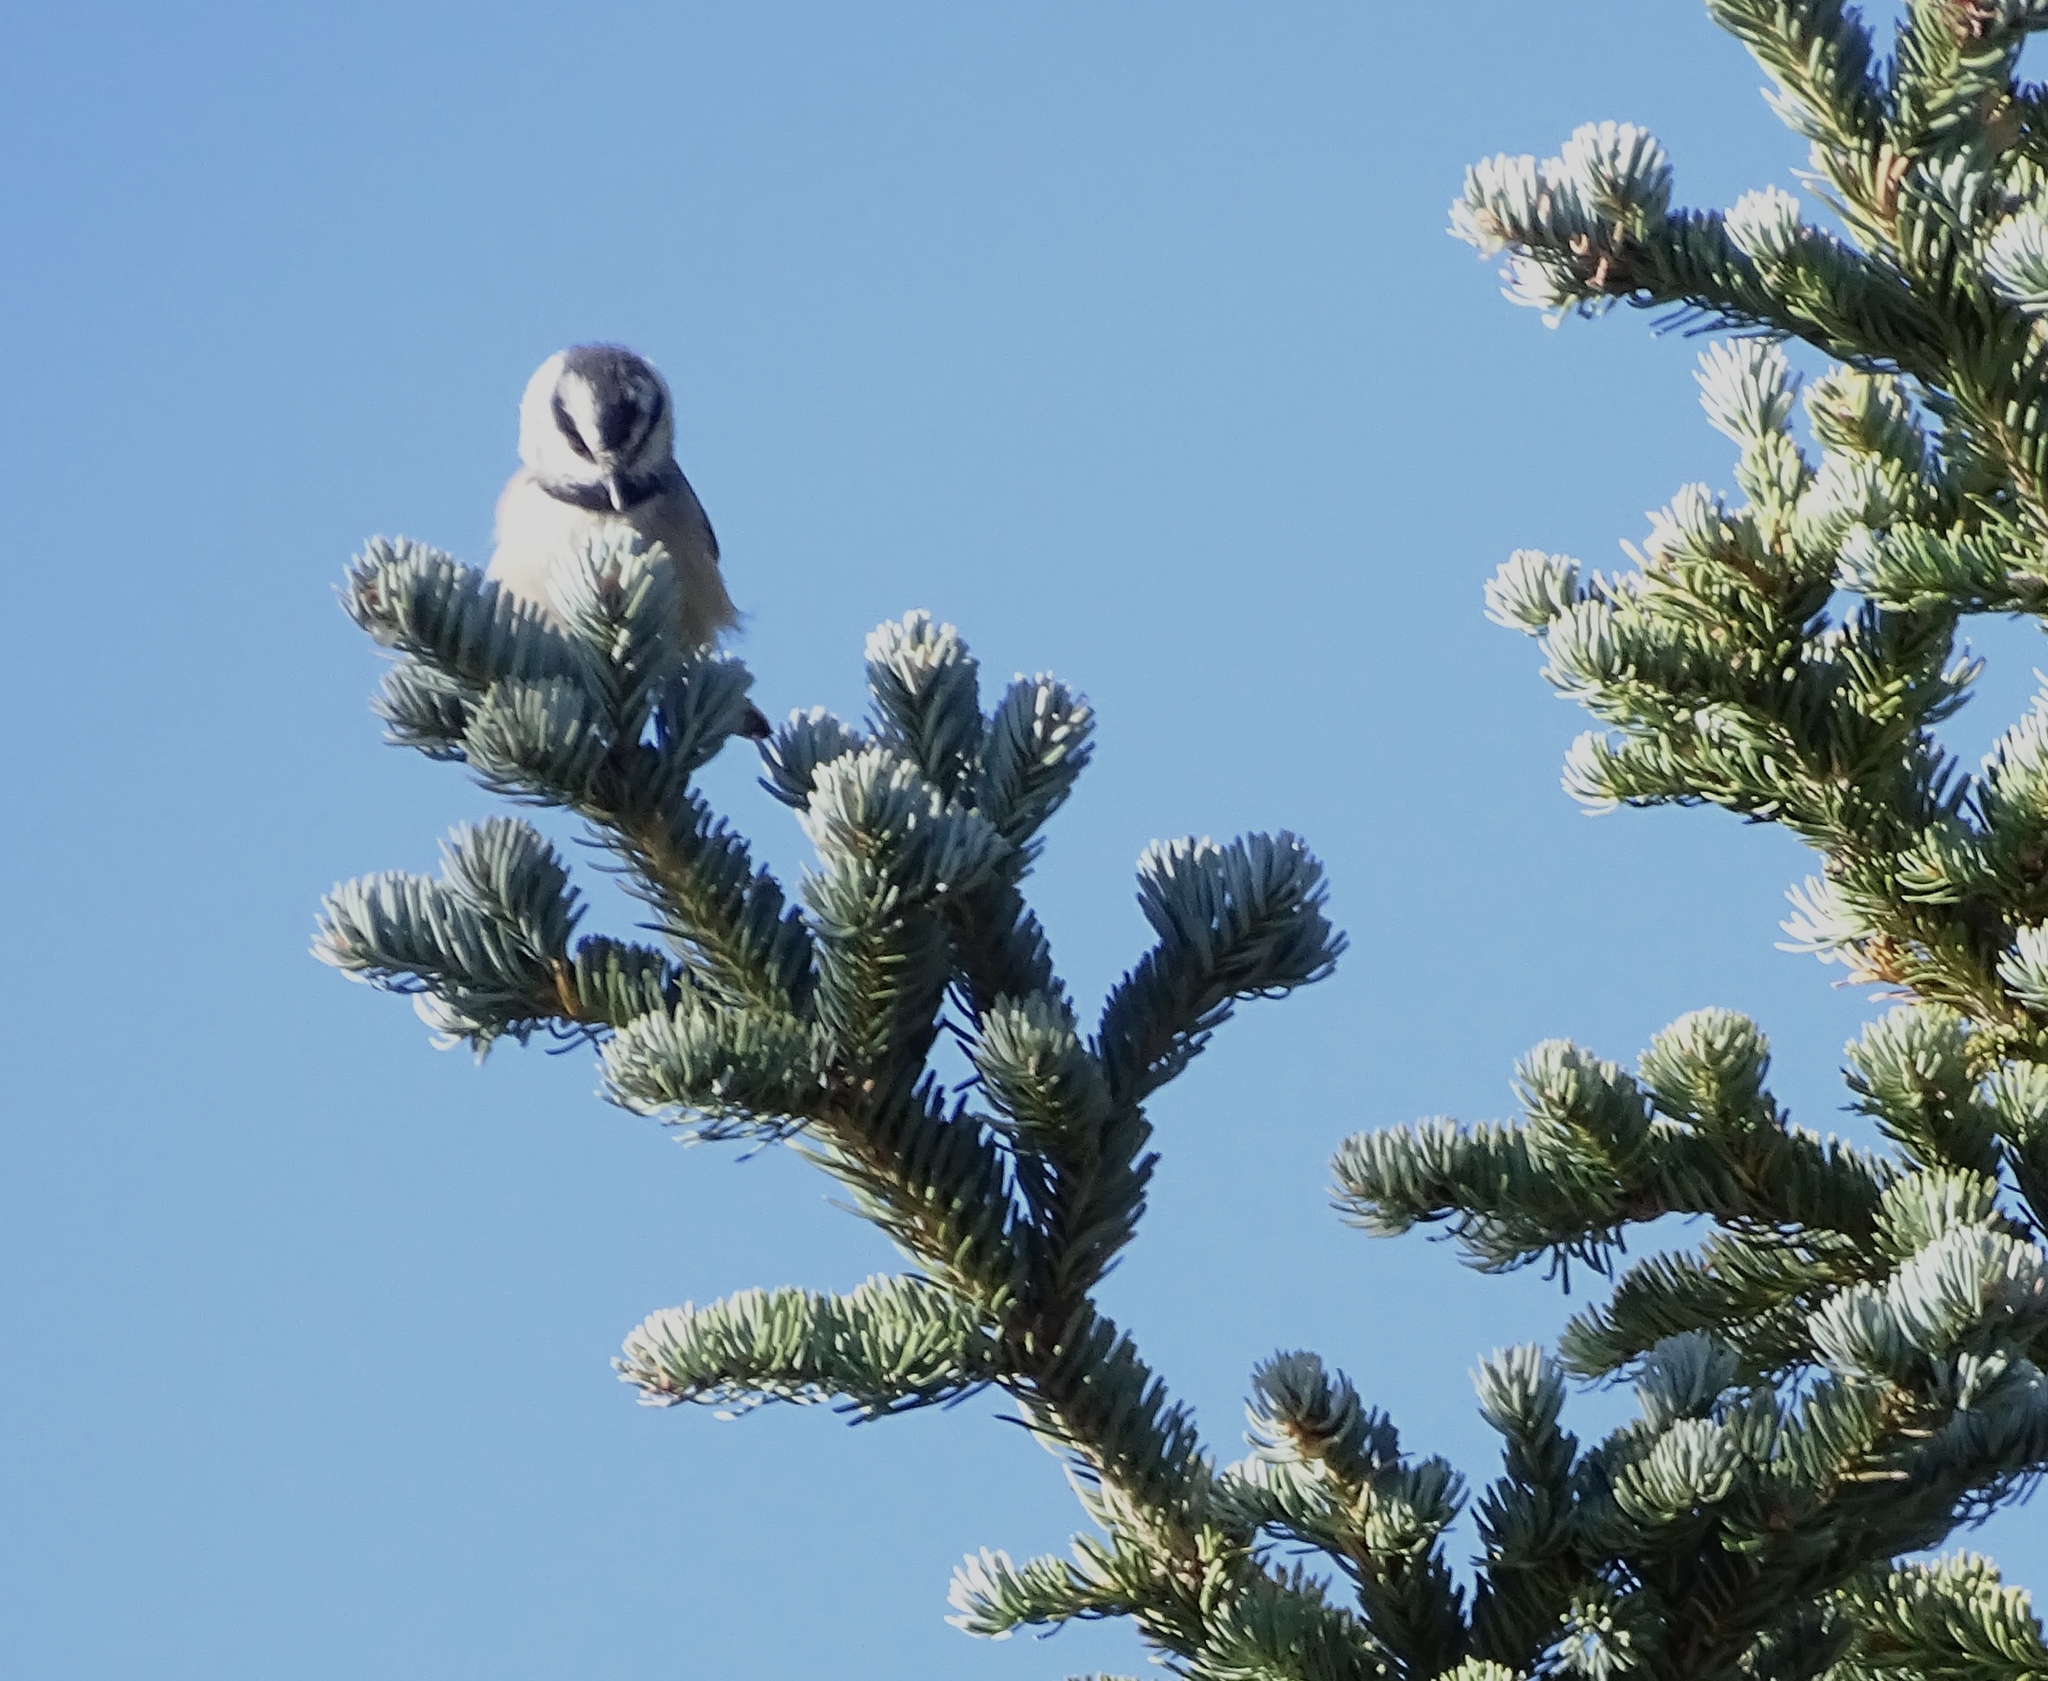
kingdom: Animalia
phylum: Chordata
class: Aves
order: Passeriformes
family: Paridae
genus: Poecile
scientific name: Poecile gambeli
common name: Mountain chickadee
